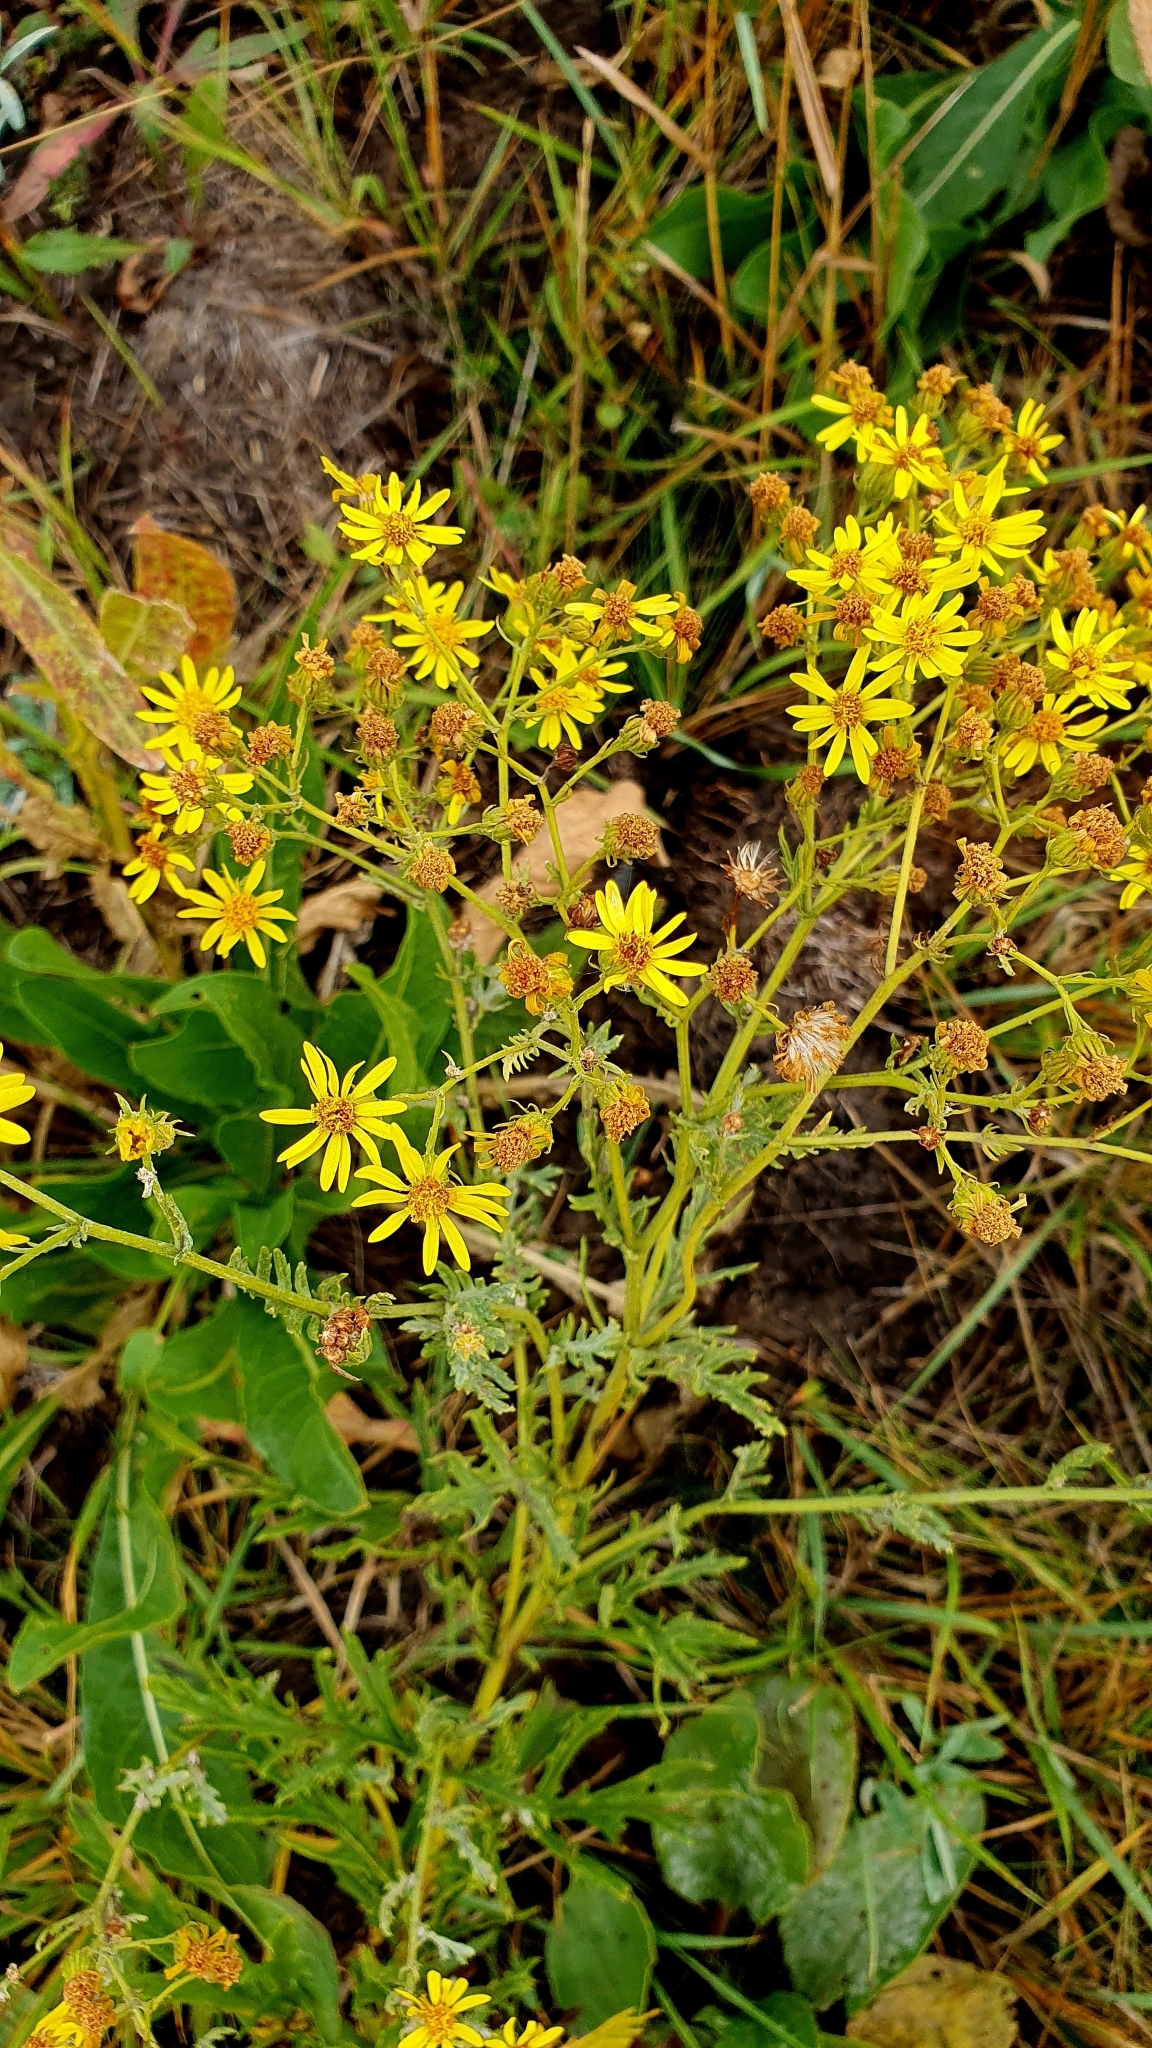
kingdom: Plantae
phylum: Tracheophyta
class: Magnoliopsida
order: Asterales
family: Asteraceae
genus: Jacobaea
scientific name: Jacobaea vulgaris
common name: Stinking willie
